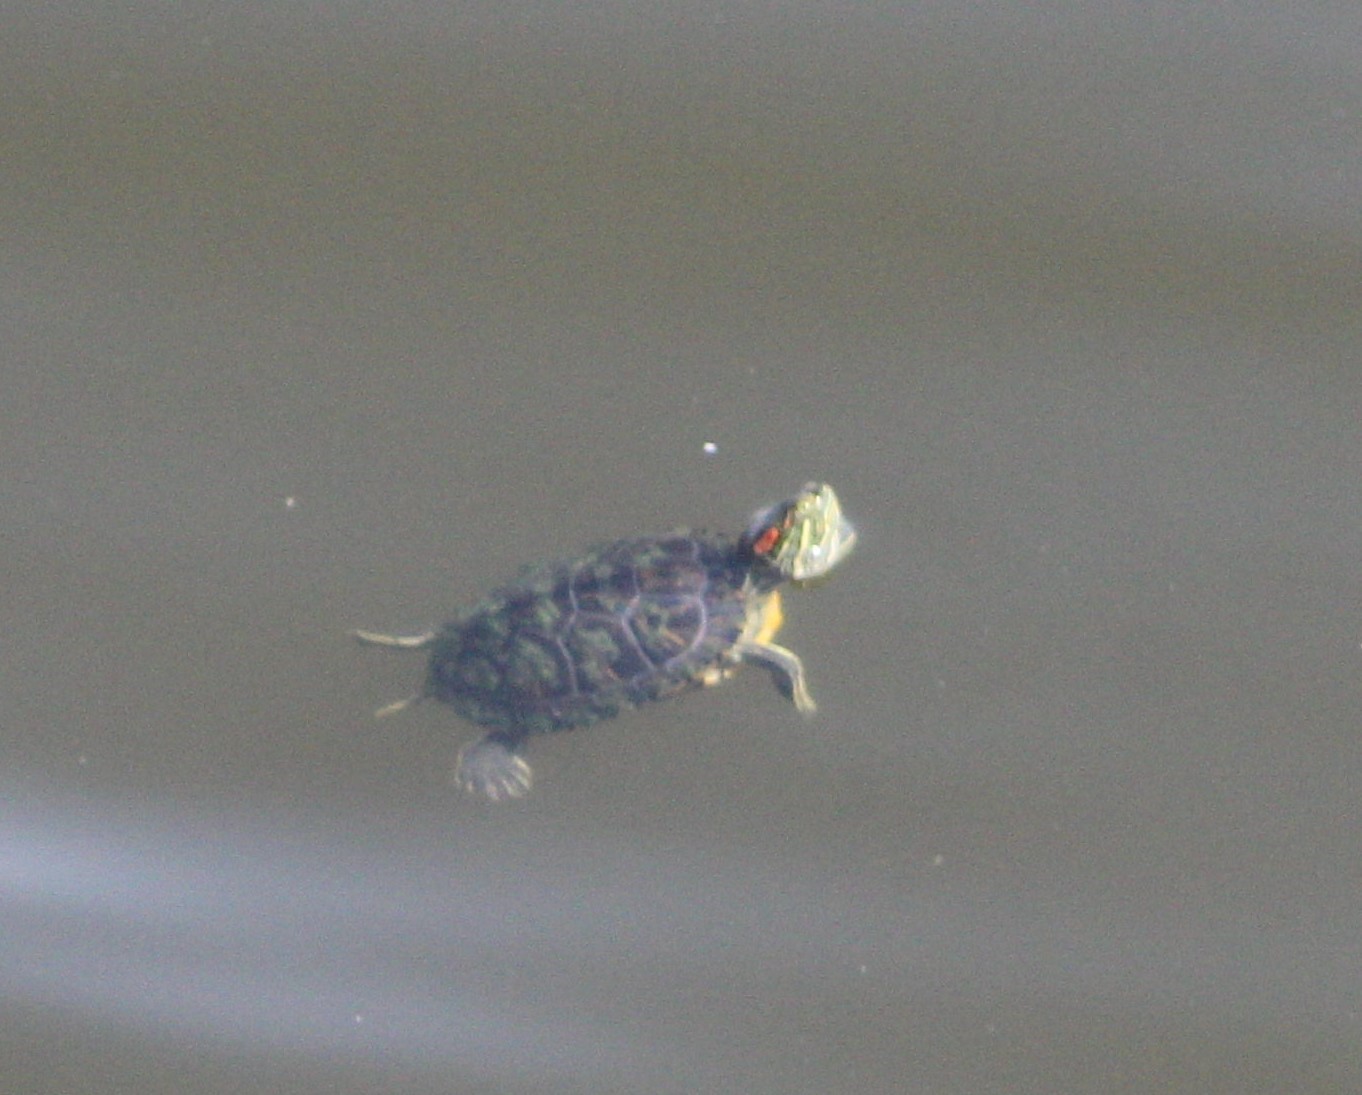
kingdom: Animalia
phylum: Chordata
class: Testudines
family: Emydidae
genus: Trachemys
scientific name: Trachemys scripta
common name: Slider
